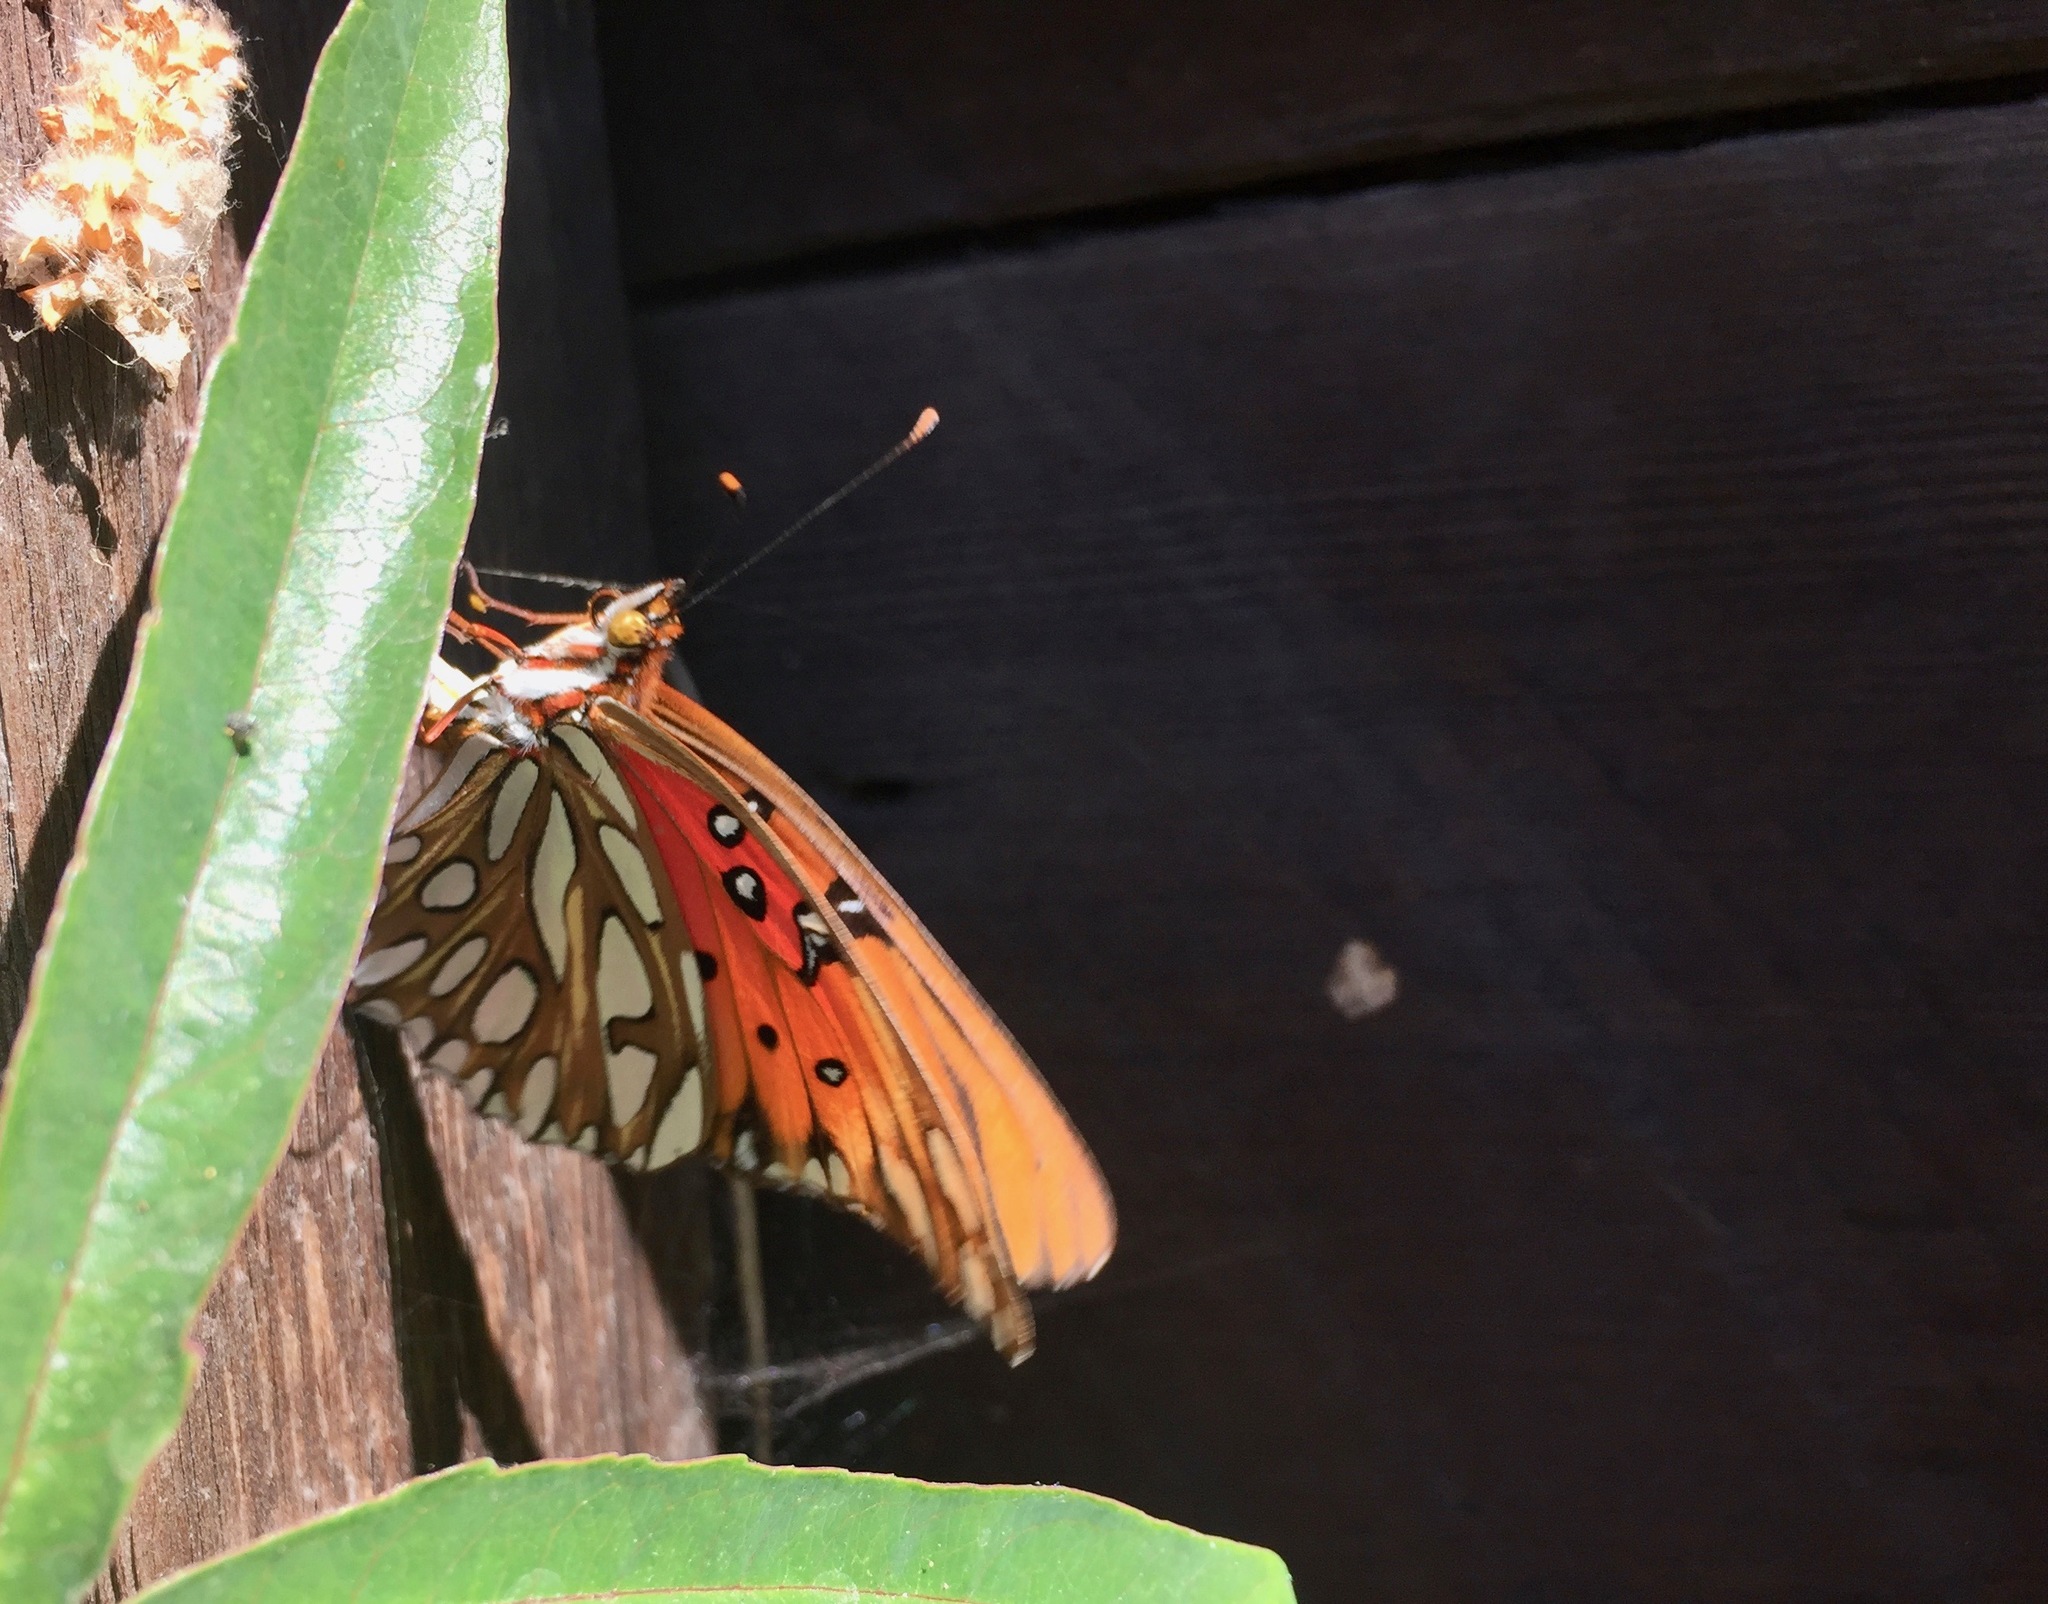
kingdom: Animalia
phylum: Arthropoda
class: Insecta
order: Lepidoptera
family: Nymphalidae
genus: Dione
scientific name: Dione vanillae
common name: Gulf fritillary
